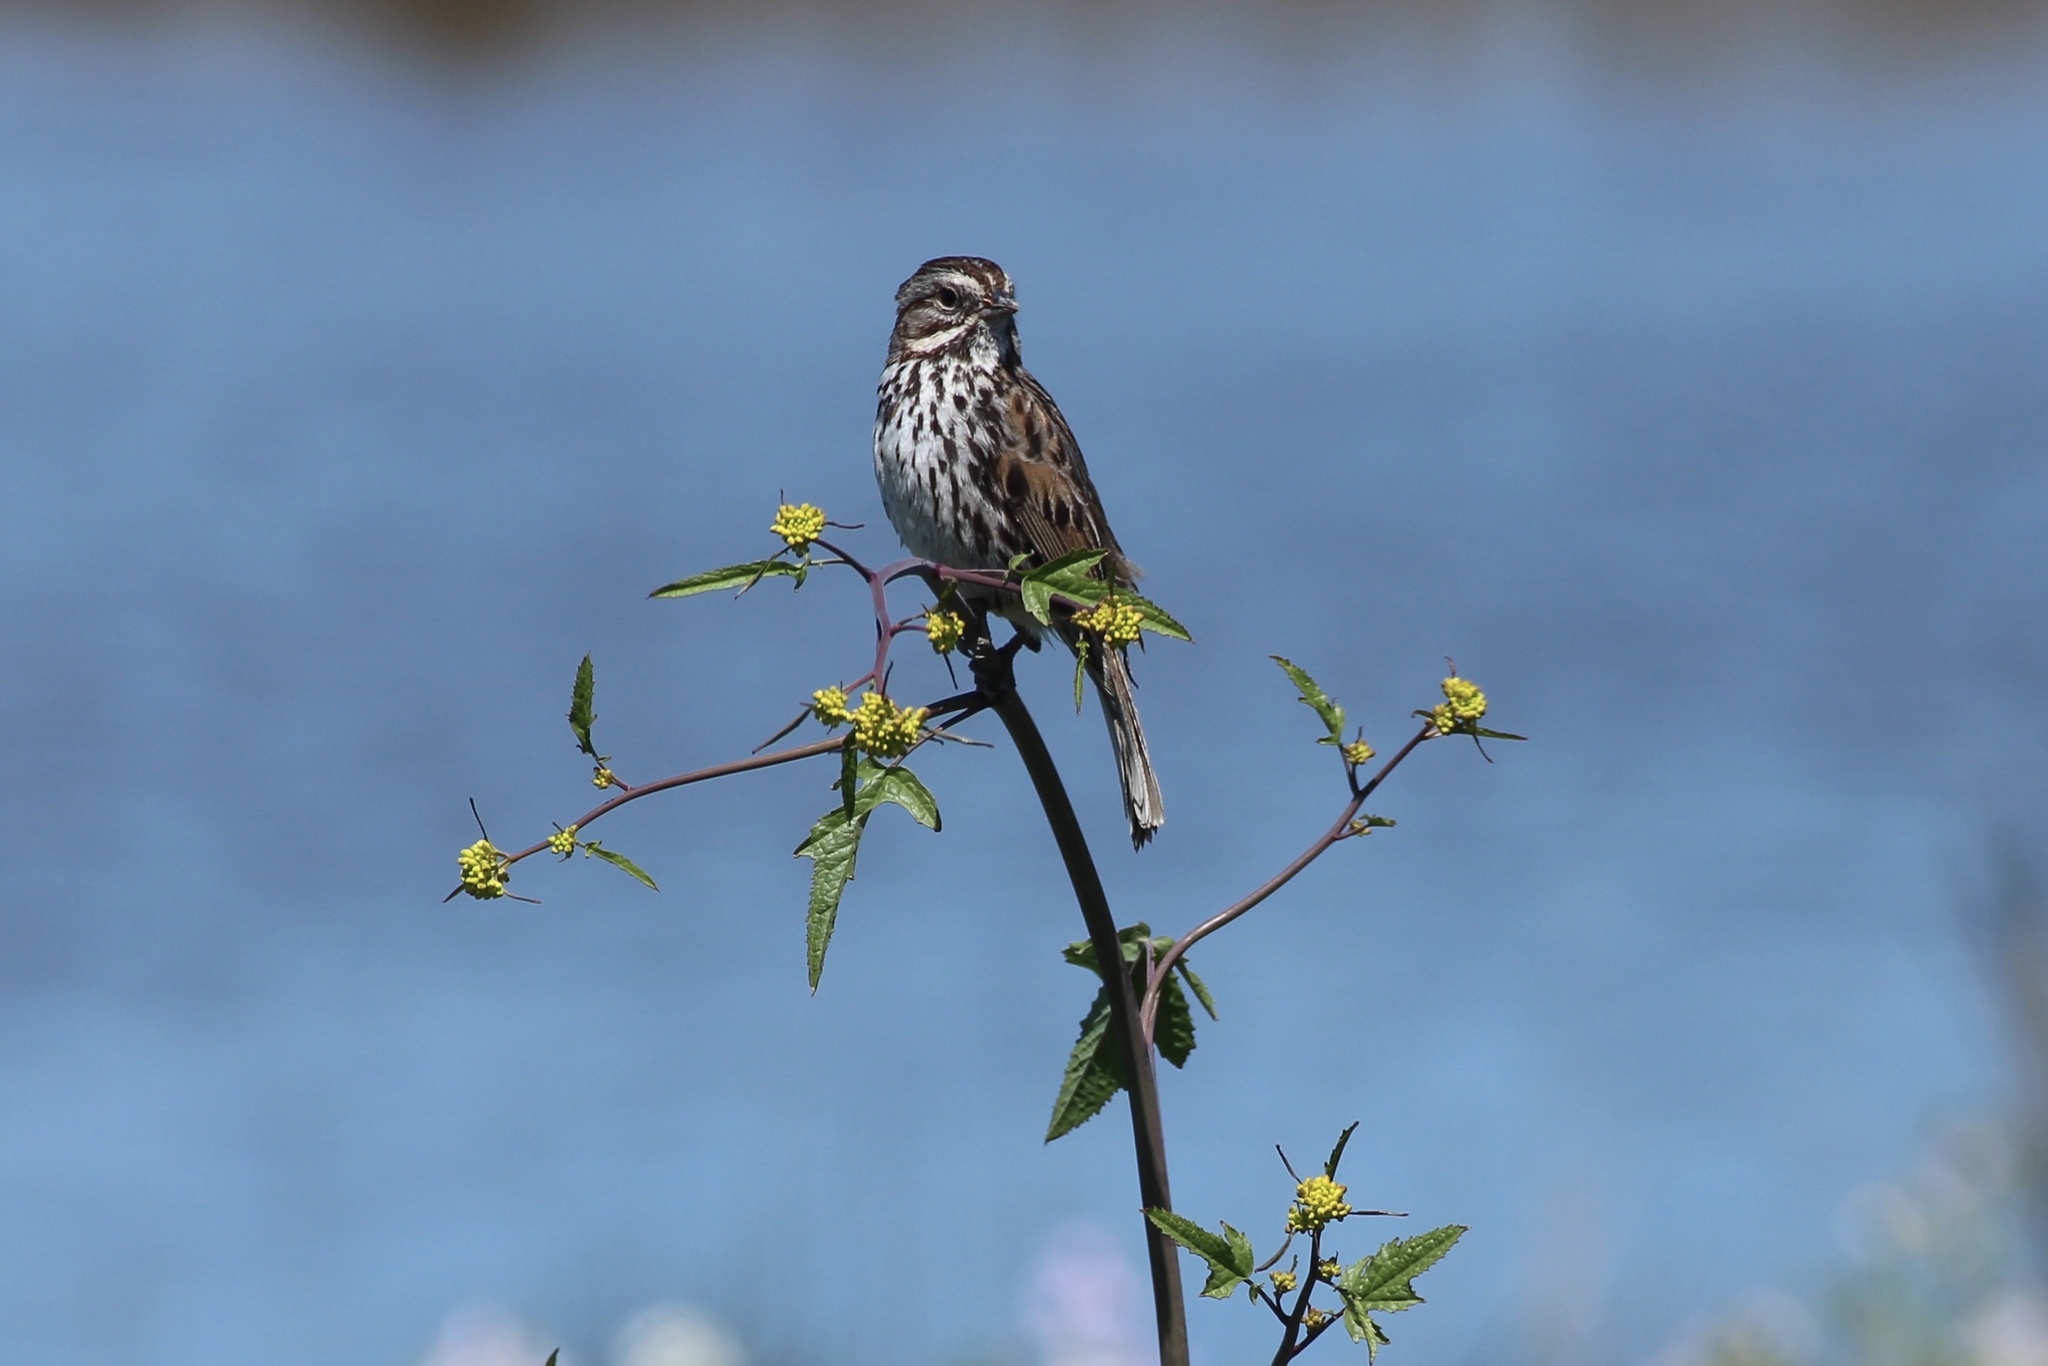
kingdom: Animalia
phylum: Chordata
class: Aves
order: Passeriformes
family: Passerellidae
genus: Melospiza
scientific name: Melospiza melodia
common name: Song sparrow
